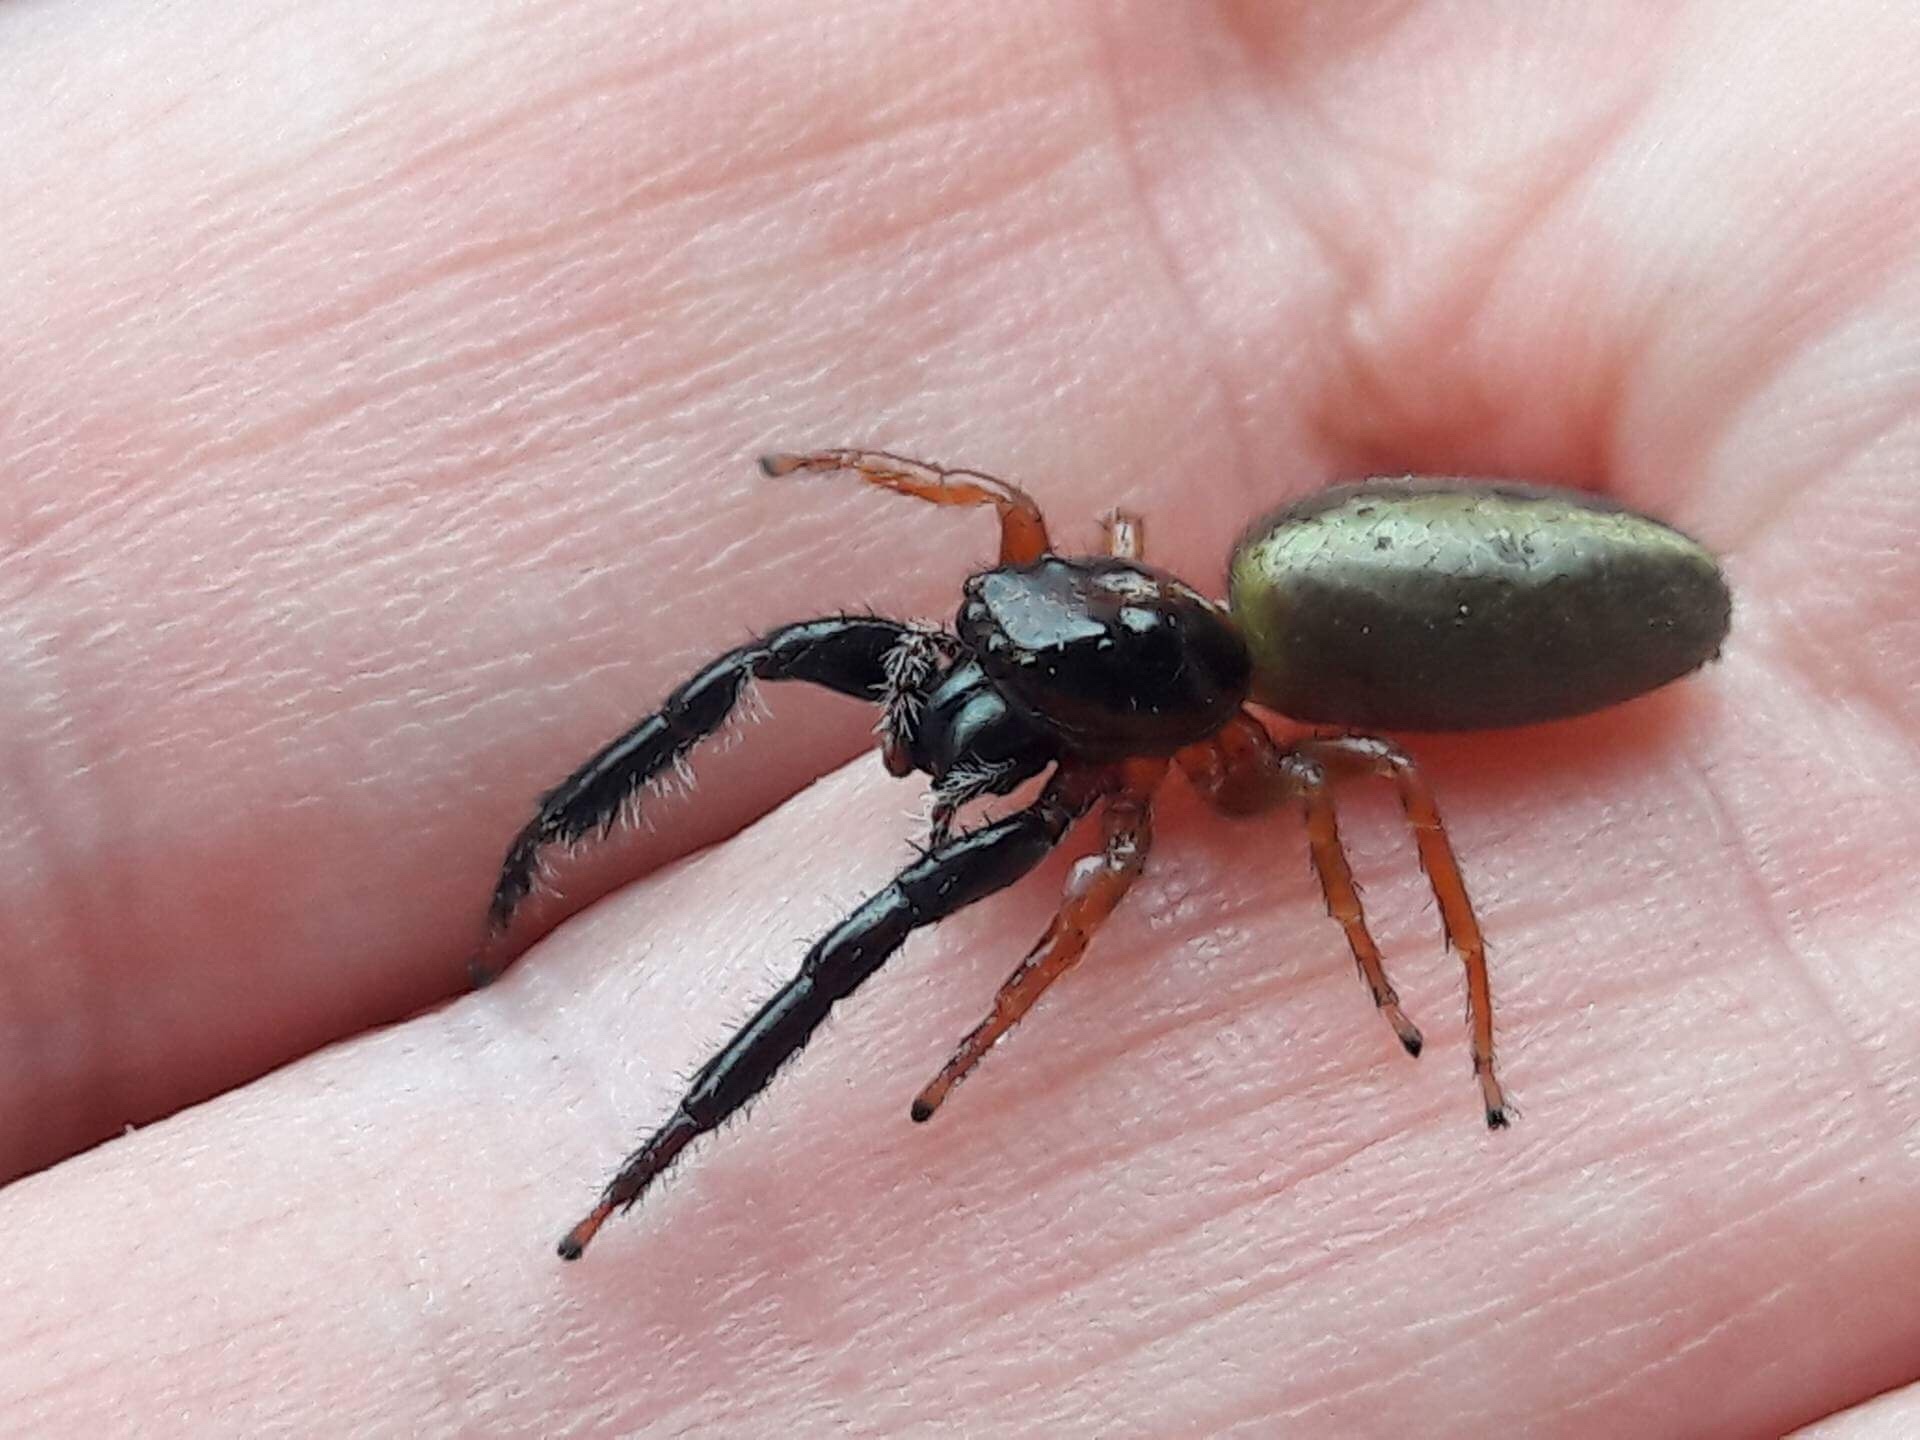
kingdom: Animalia
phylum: Arthropoda
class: Arachnida
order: Araneae
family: Salticidae
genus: Trite
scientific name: Trite planiceps
